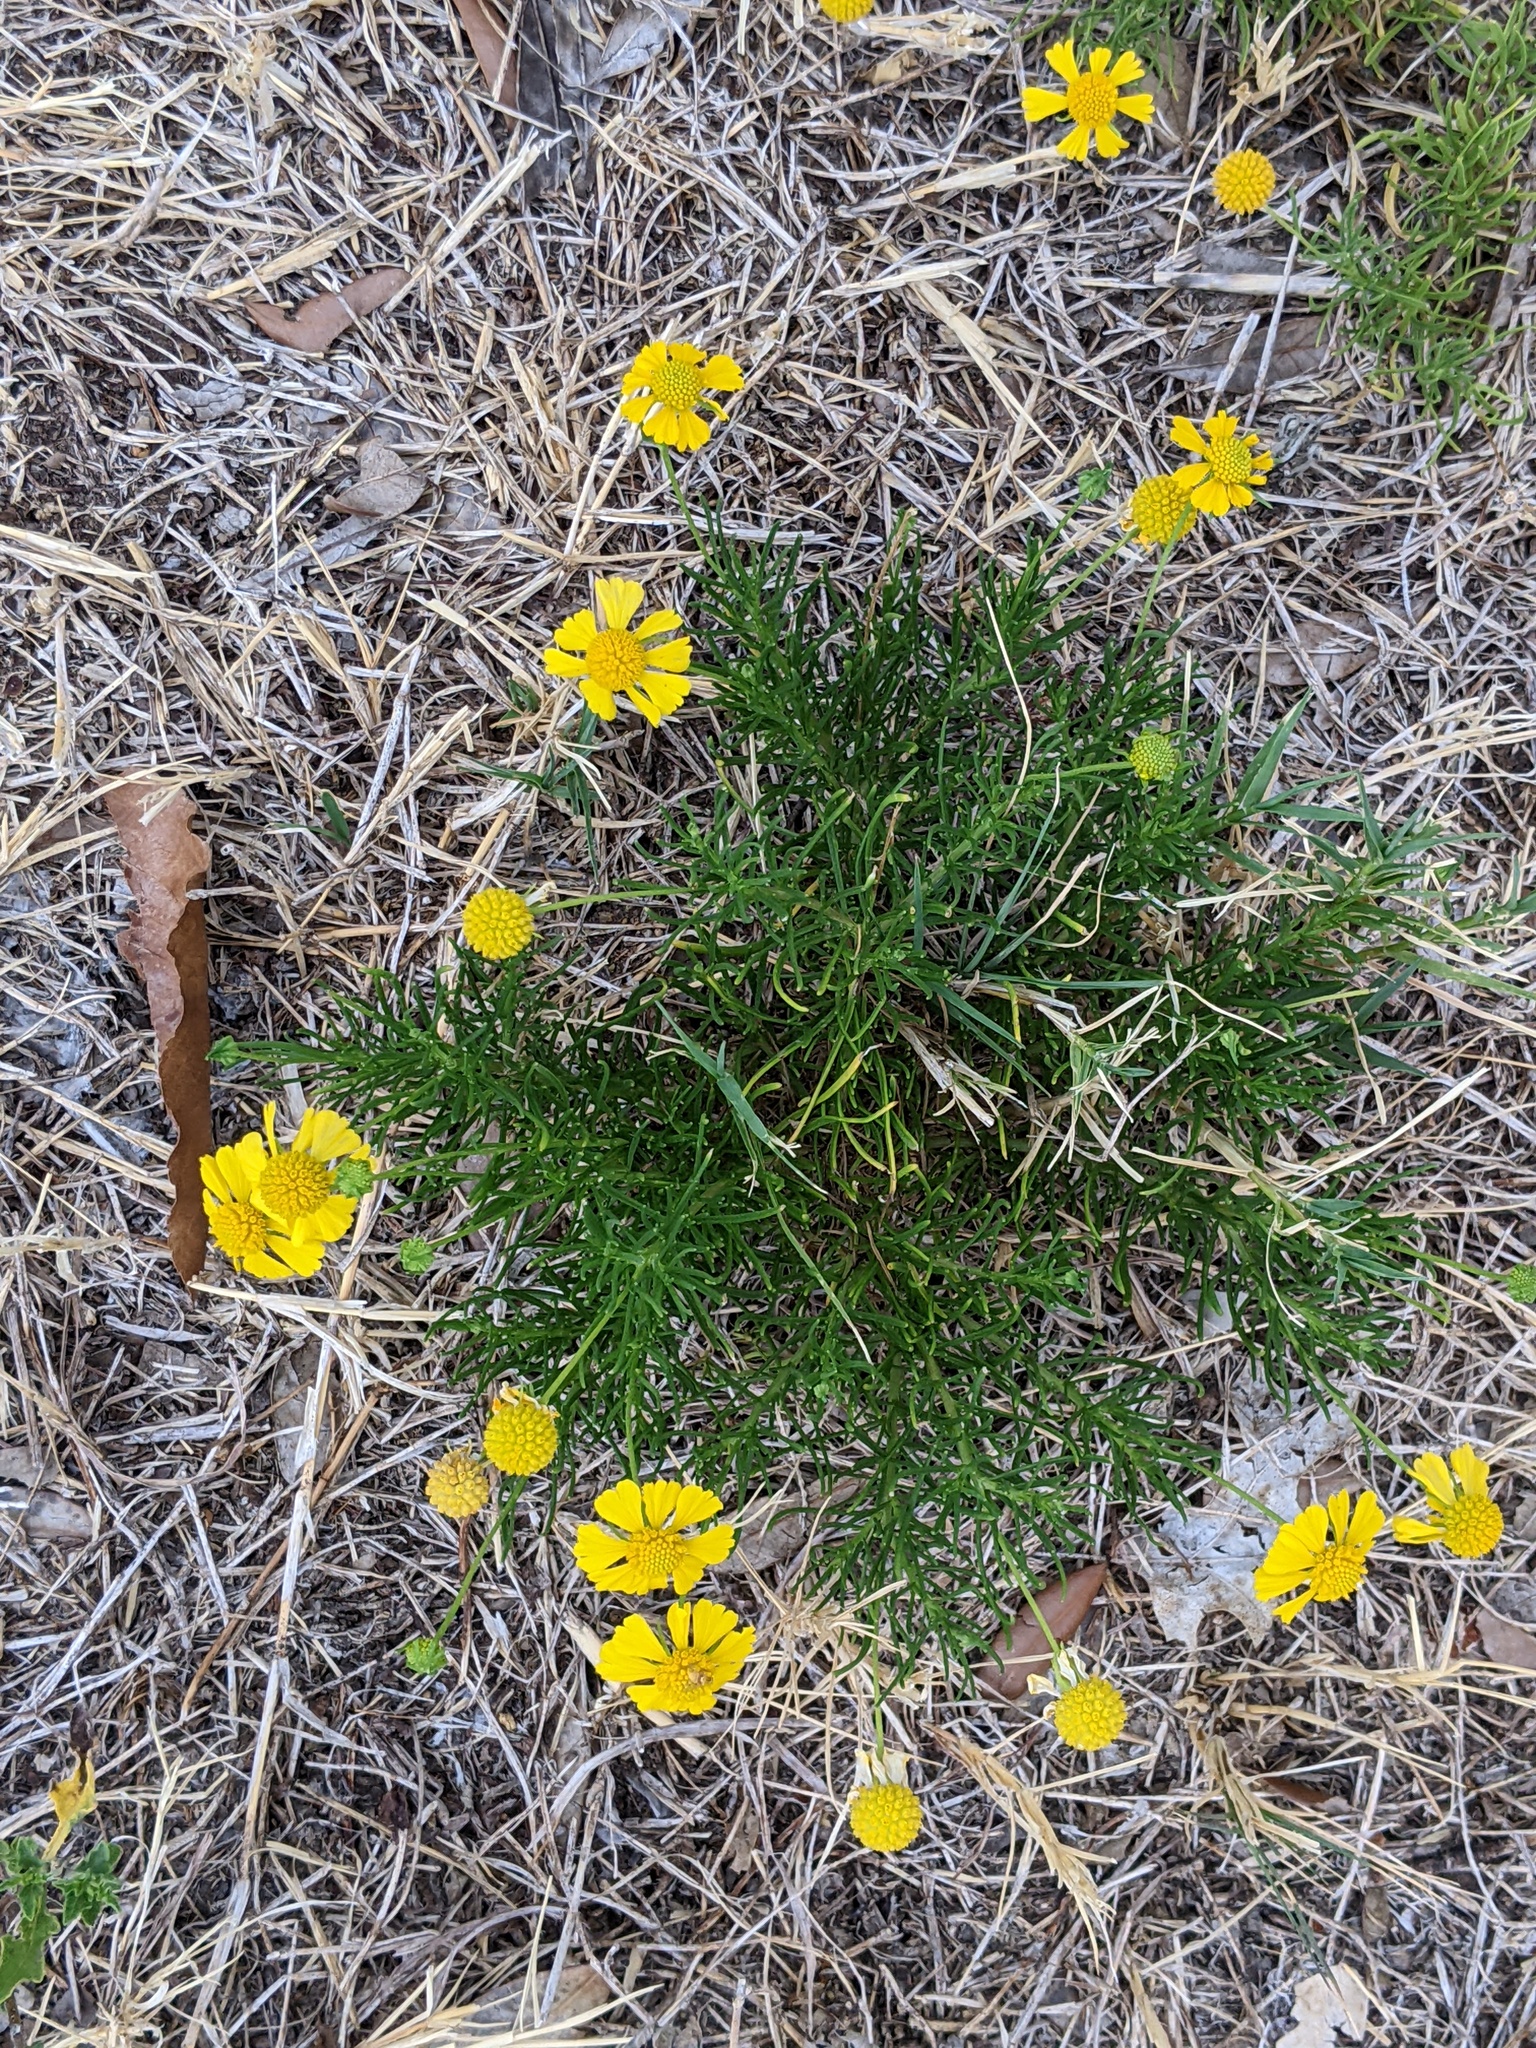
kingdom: Plantae
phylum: Tracheophyta
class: Magnoliopsida
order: Asterales
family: Asteraceae
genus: Helenium
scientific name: Helenium amarum
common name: Bitter sneezeweed
